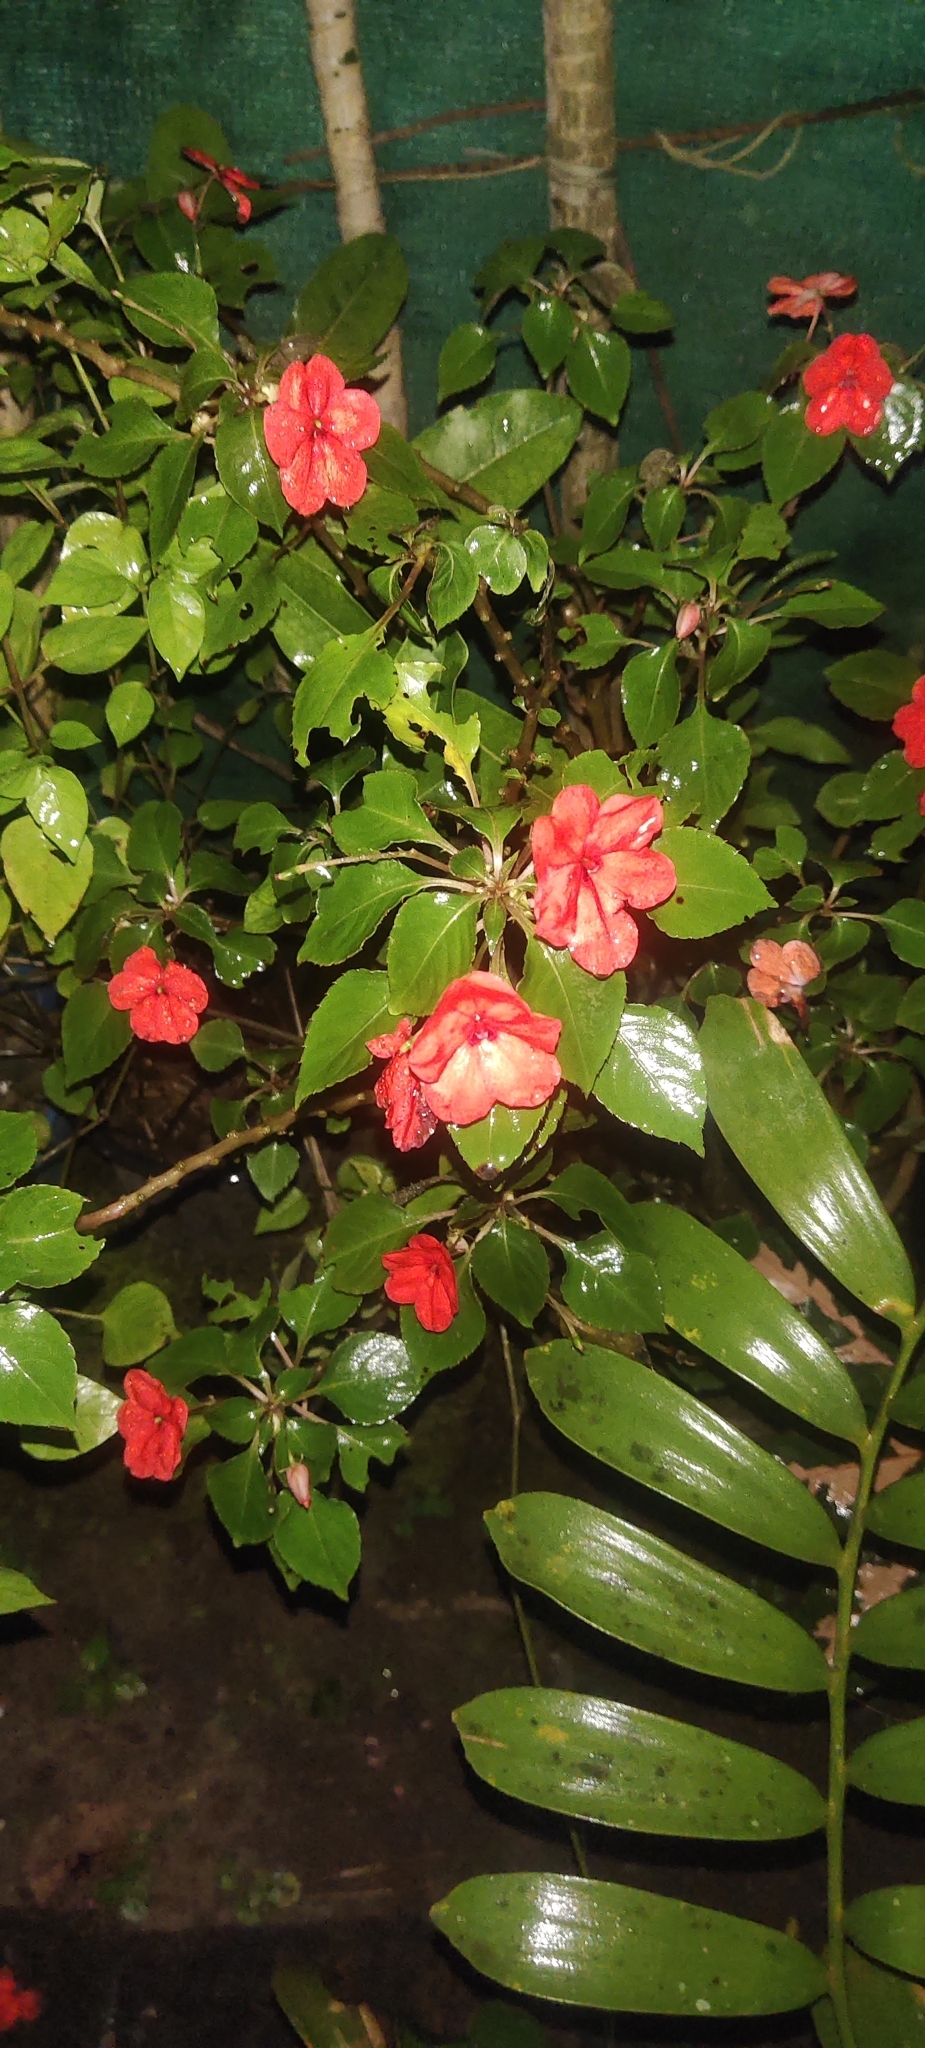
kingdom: Plantae
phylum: Tracheophyta
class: Magnoliopsida
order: Ericales
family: Balsaminaceae
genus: Impatiens
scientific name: Impatiens walleriana
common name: Buzzy lizzy
